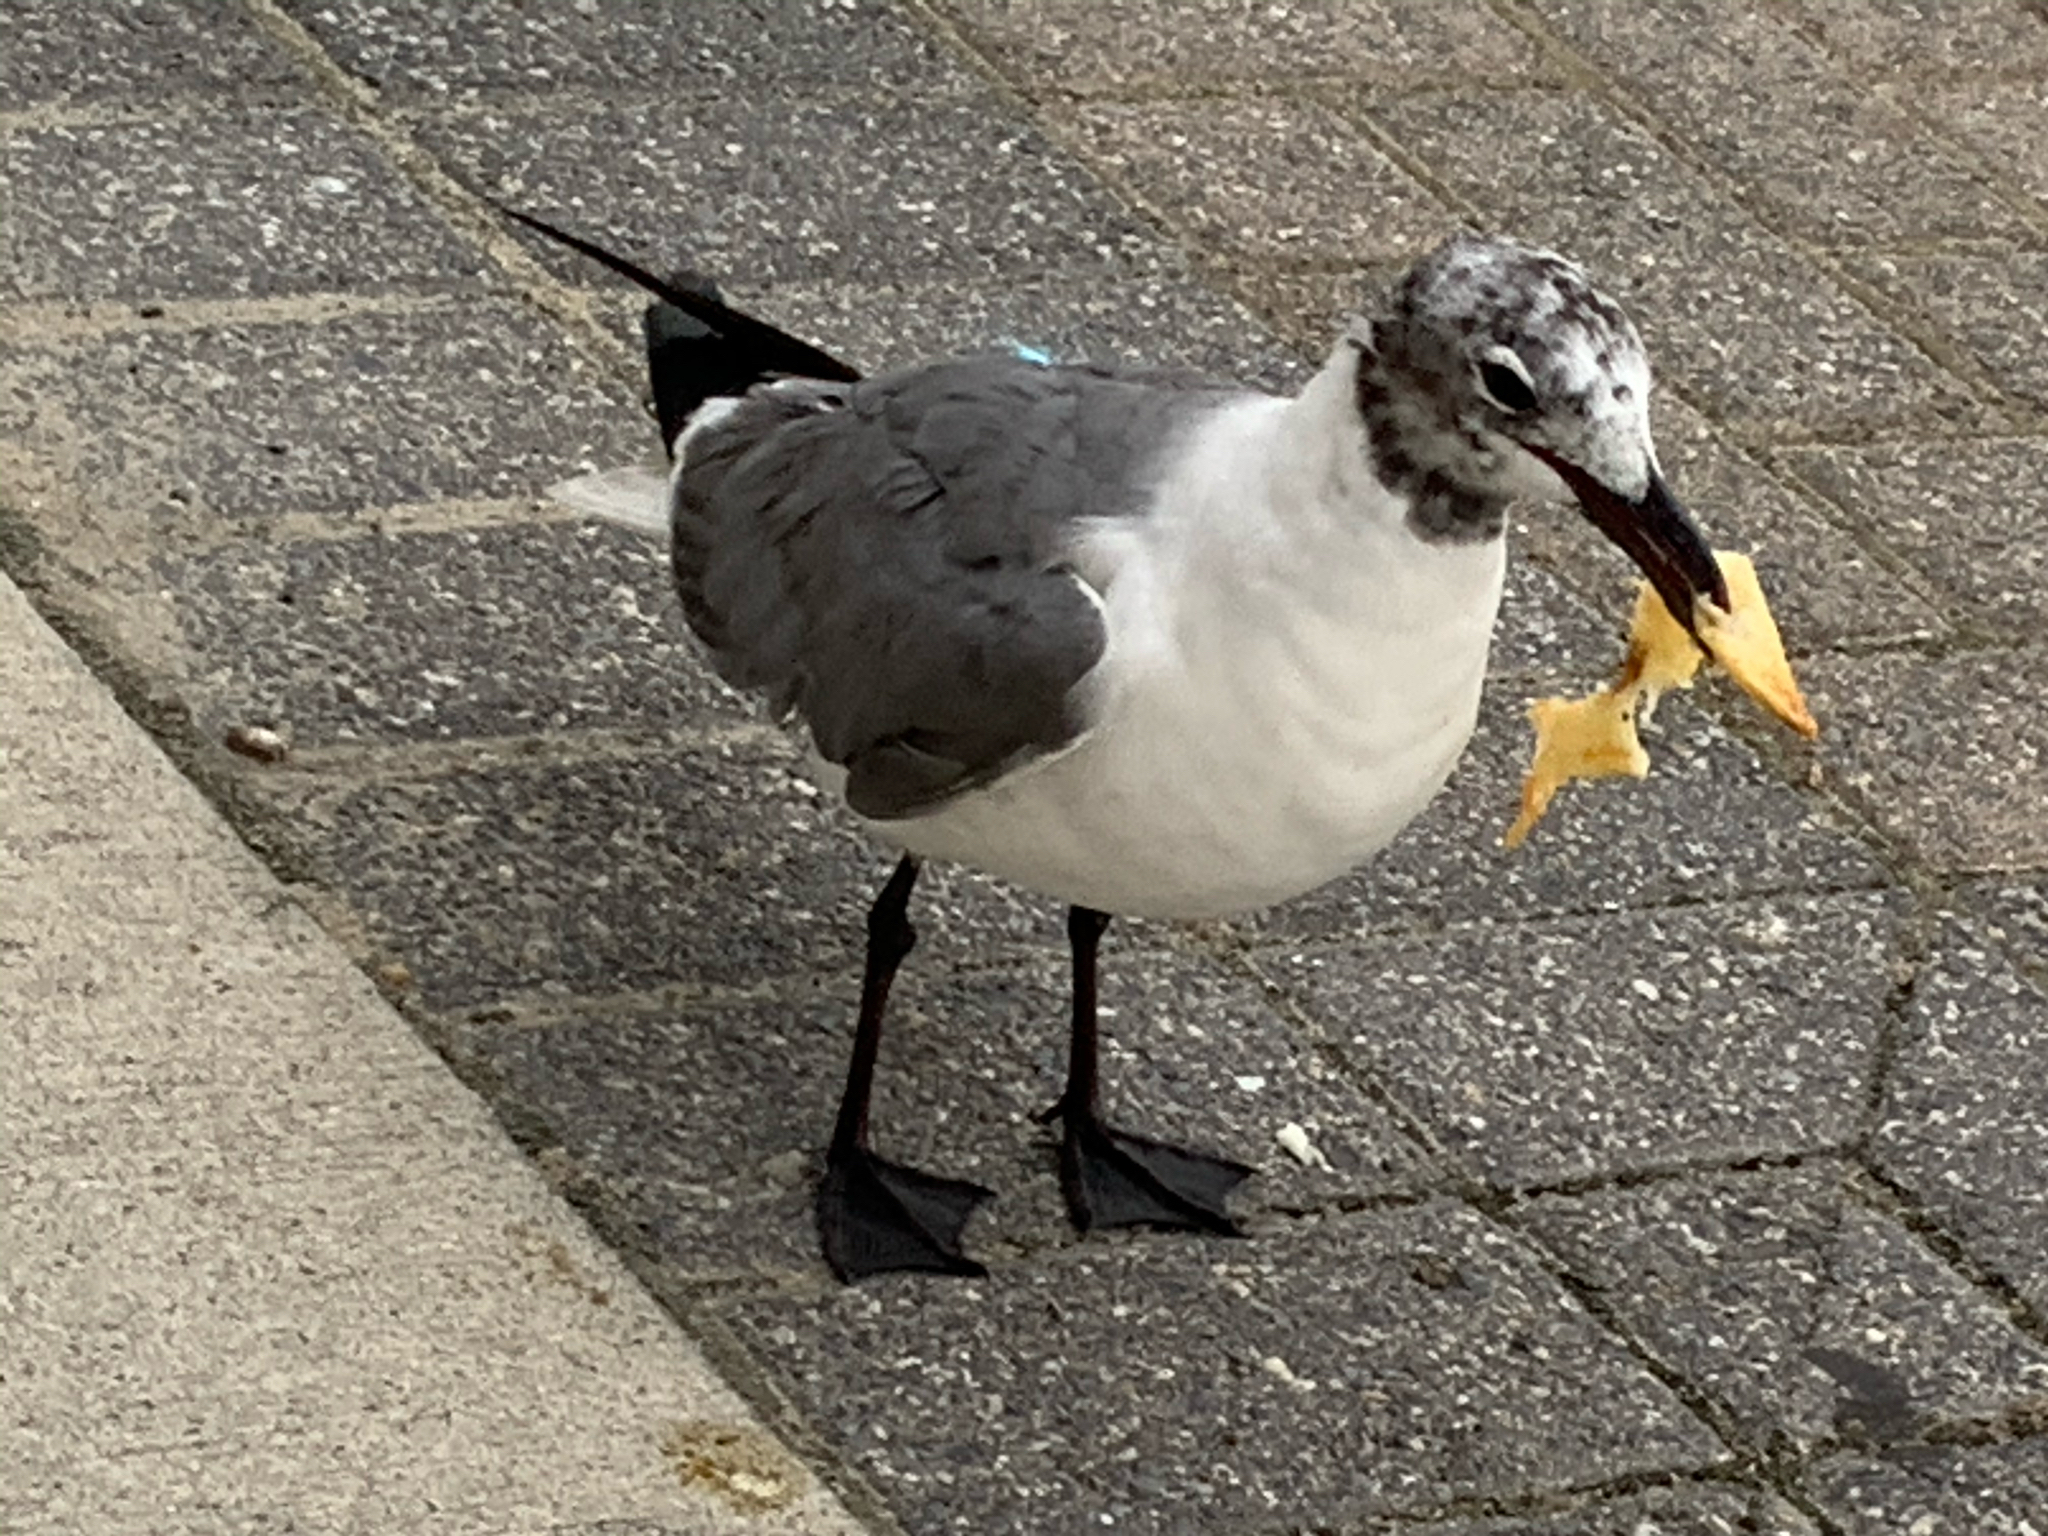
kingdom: Animalia
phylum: Chordata
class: Aves
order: Charadriiformes
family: Laridae
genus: Leucophaeus
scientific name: Leucophaeus atricilla
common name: Laughing gull
